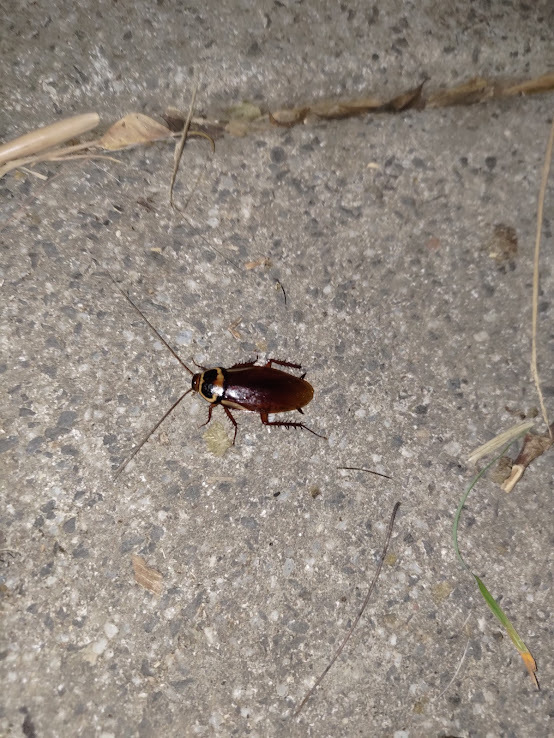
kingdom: Animalia
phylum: Arthropoda
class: Insecta
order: Blattodea
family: Blattidae
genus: Periplaneta
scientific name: Periplaneta australasiae
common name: Australian cockroach
